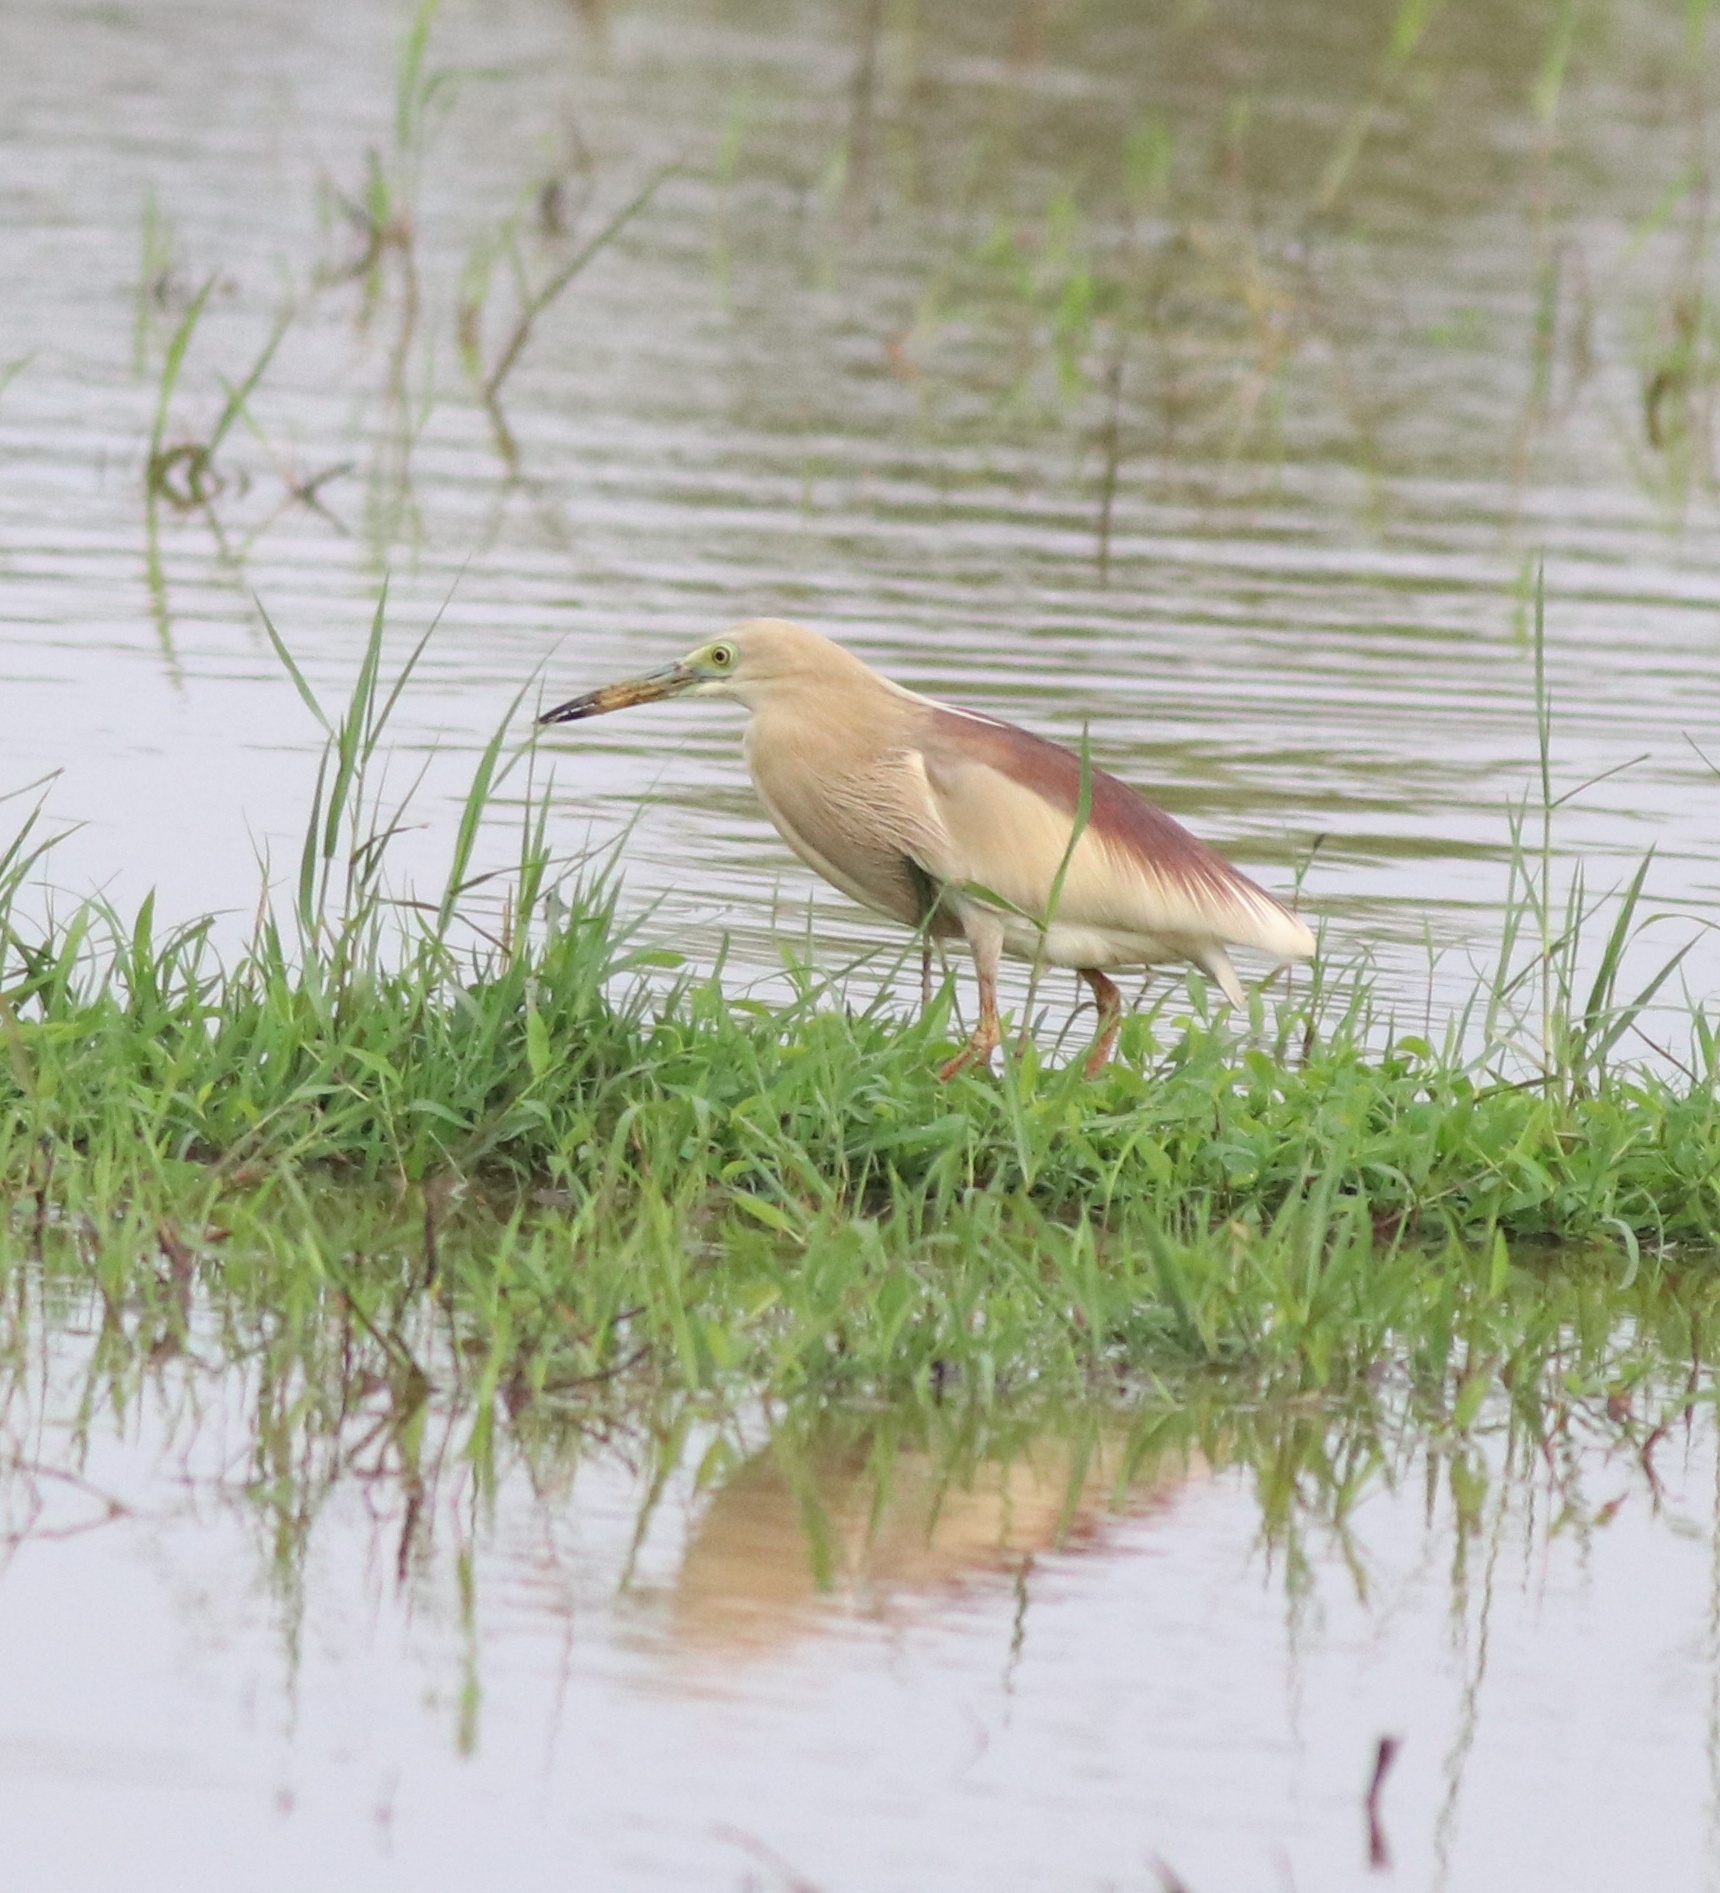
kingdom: Animalia
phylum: Chordata
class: Aves
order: Pelecaniformes
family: Ardeidae
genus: Ardeola
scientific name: Ardeola grayii
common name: Indian pond heron
